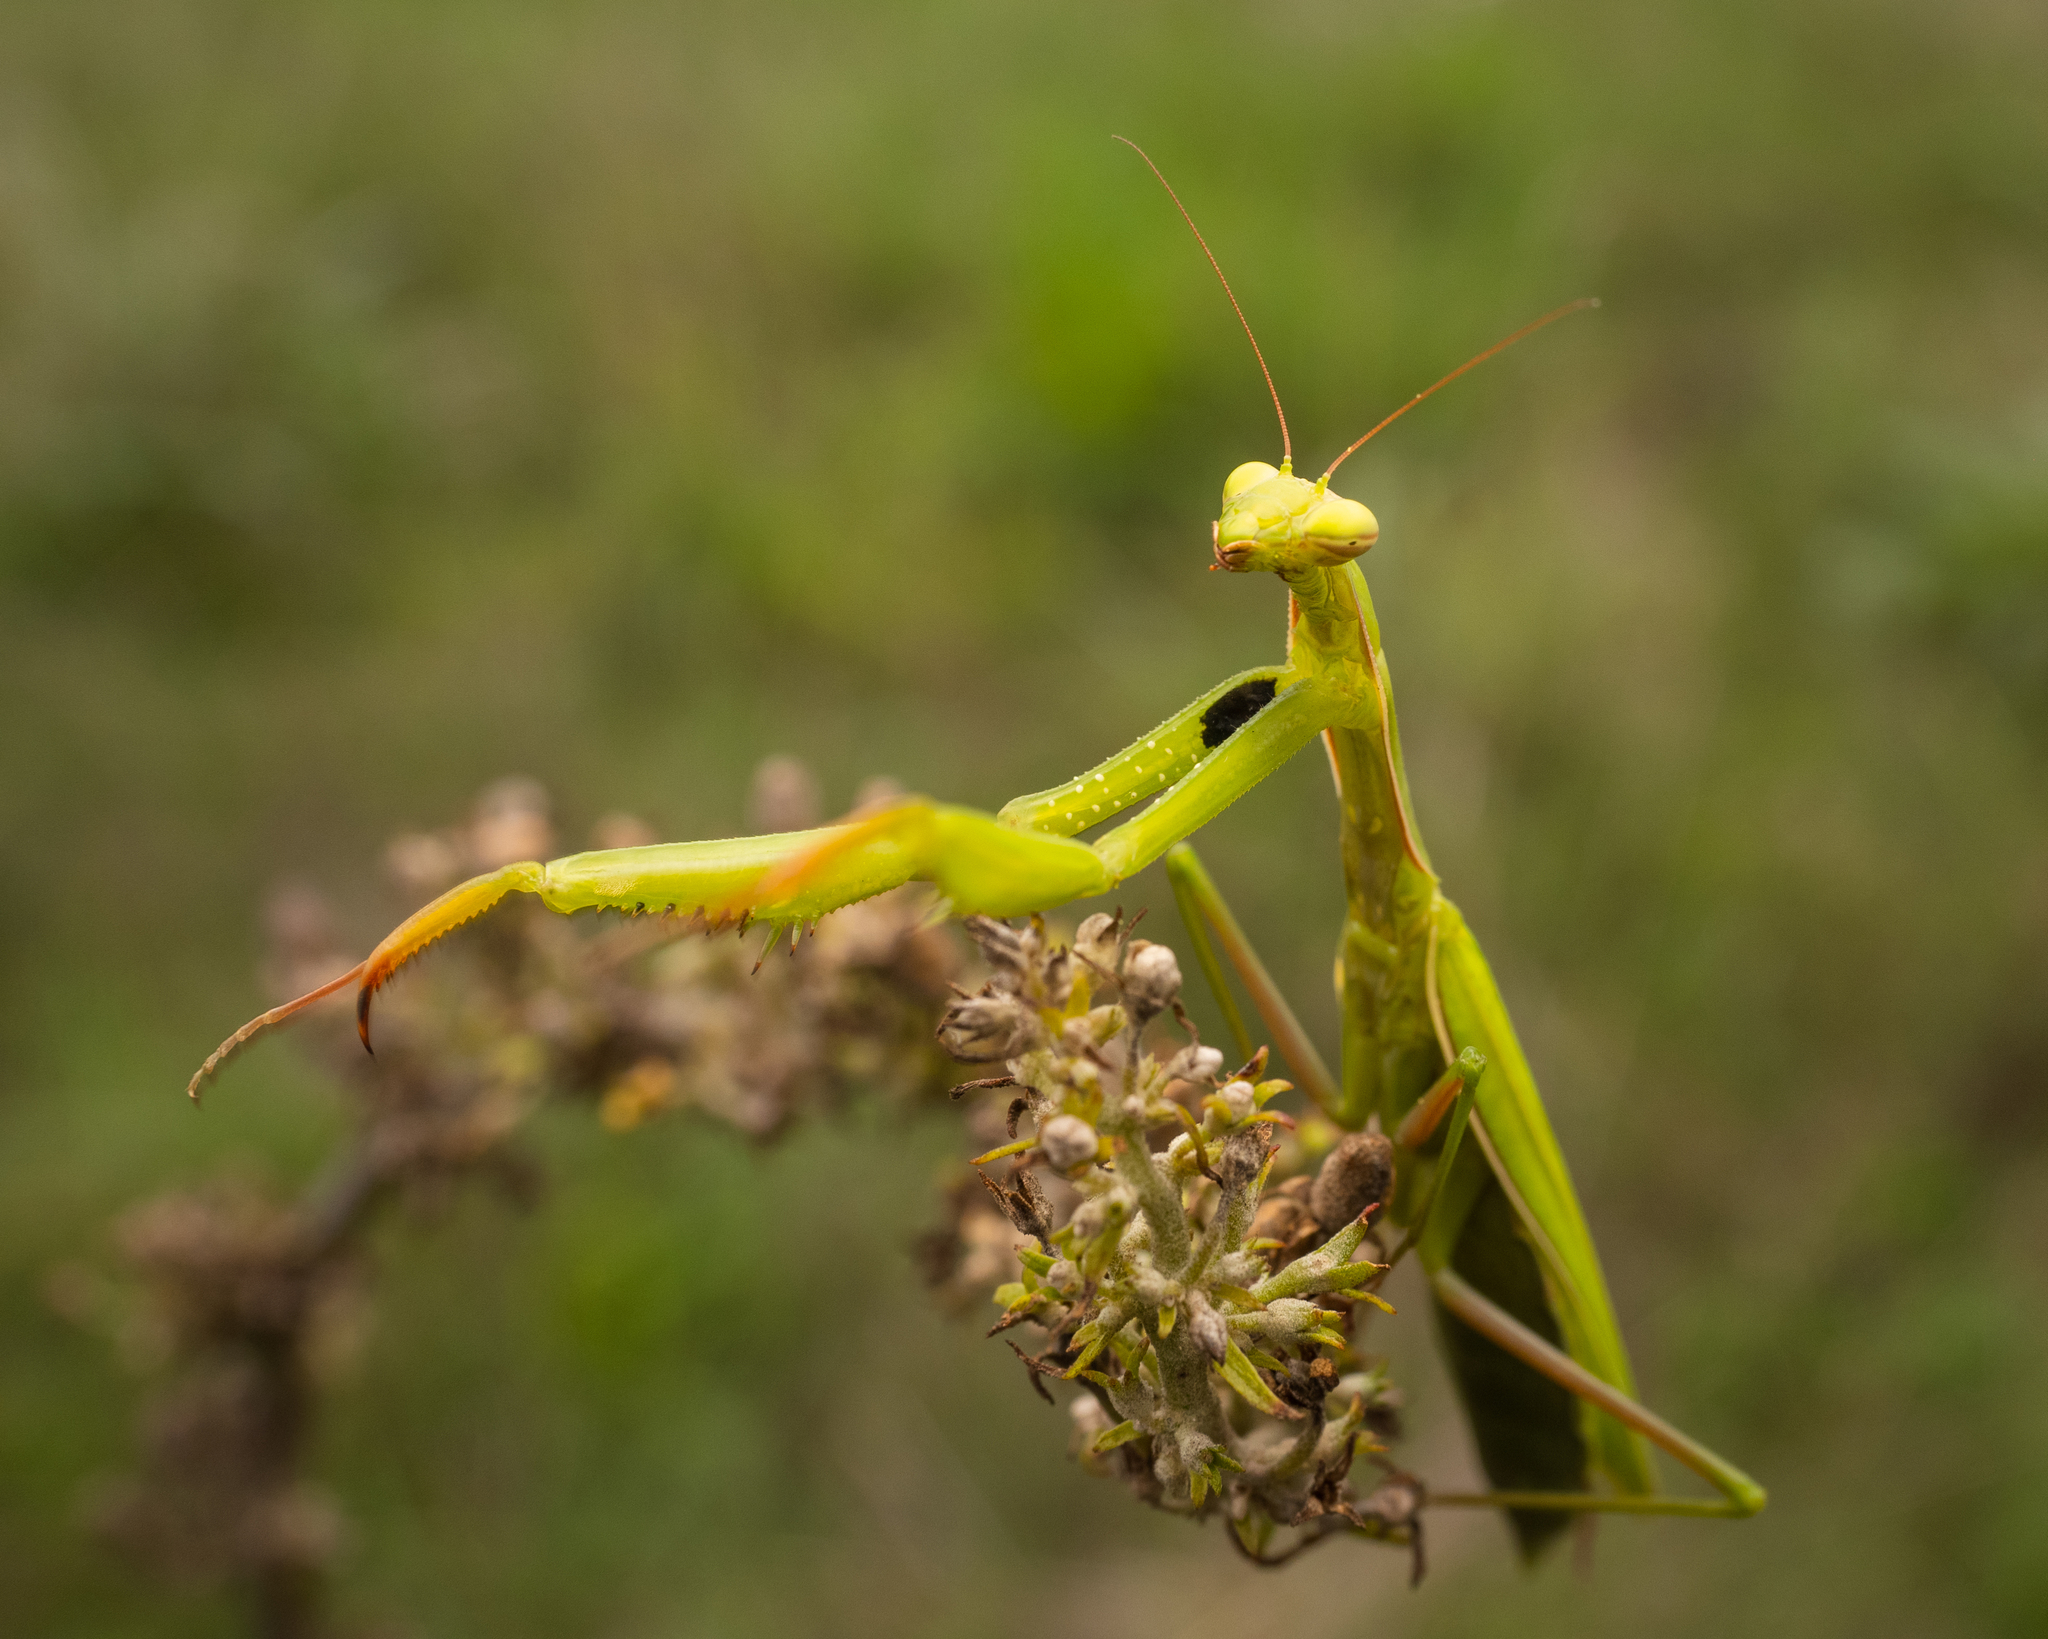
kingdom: Animalia
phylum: Arthropoda
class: Insecta
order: Mantodea
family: Mantidae
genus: Mantis
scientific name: Mantis religiosa
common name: Praying mantis
